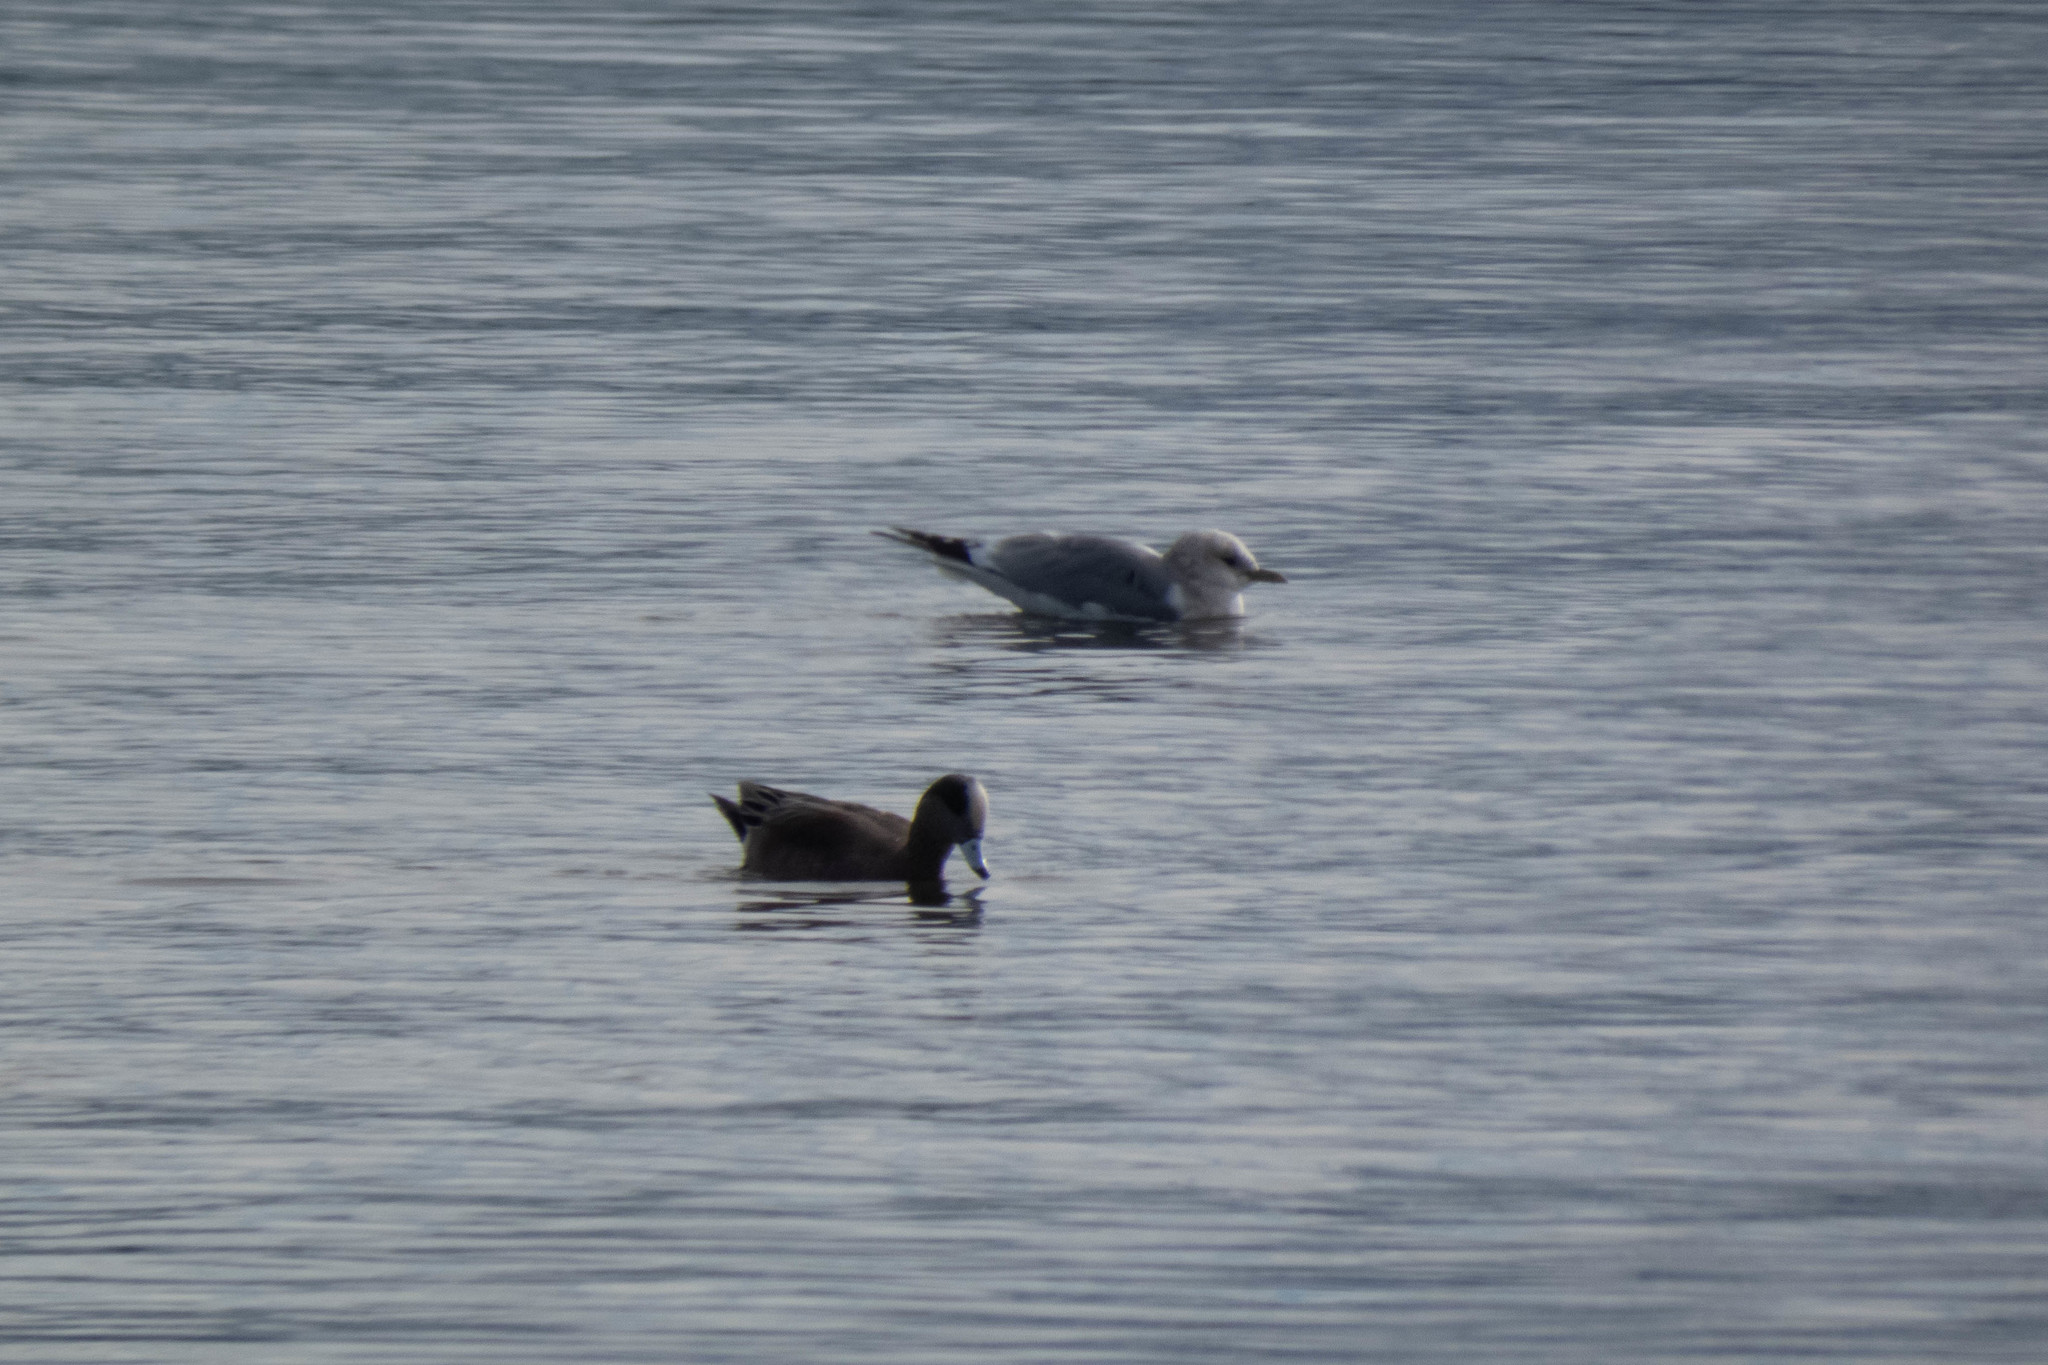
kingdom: Animalia
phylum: Chordata
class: Aves
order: Anseriformes
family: Anatidae
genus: Mareca
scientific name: Mareca americana
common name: American wigeon
